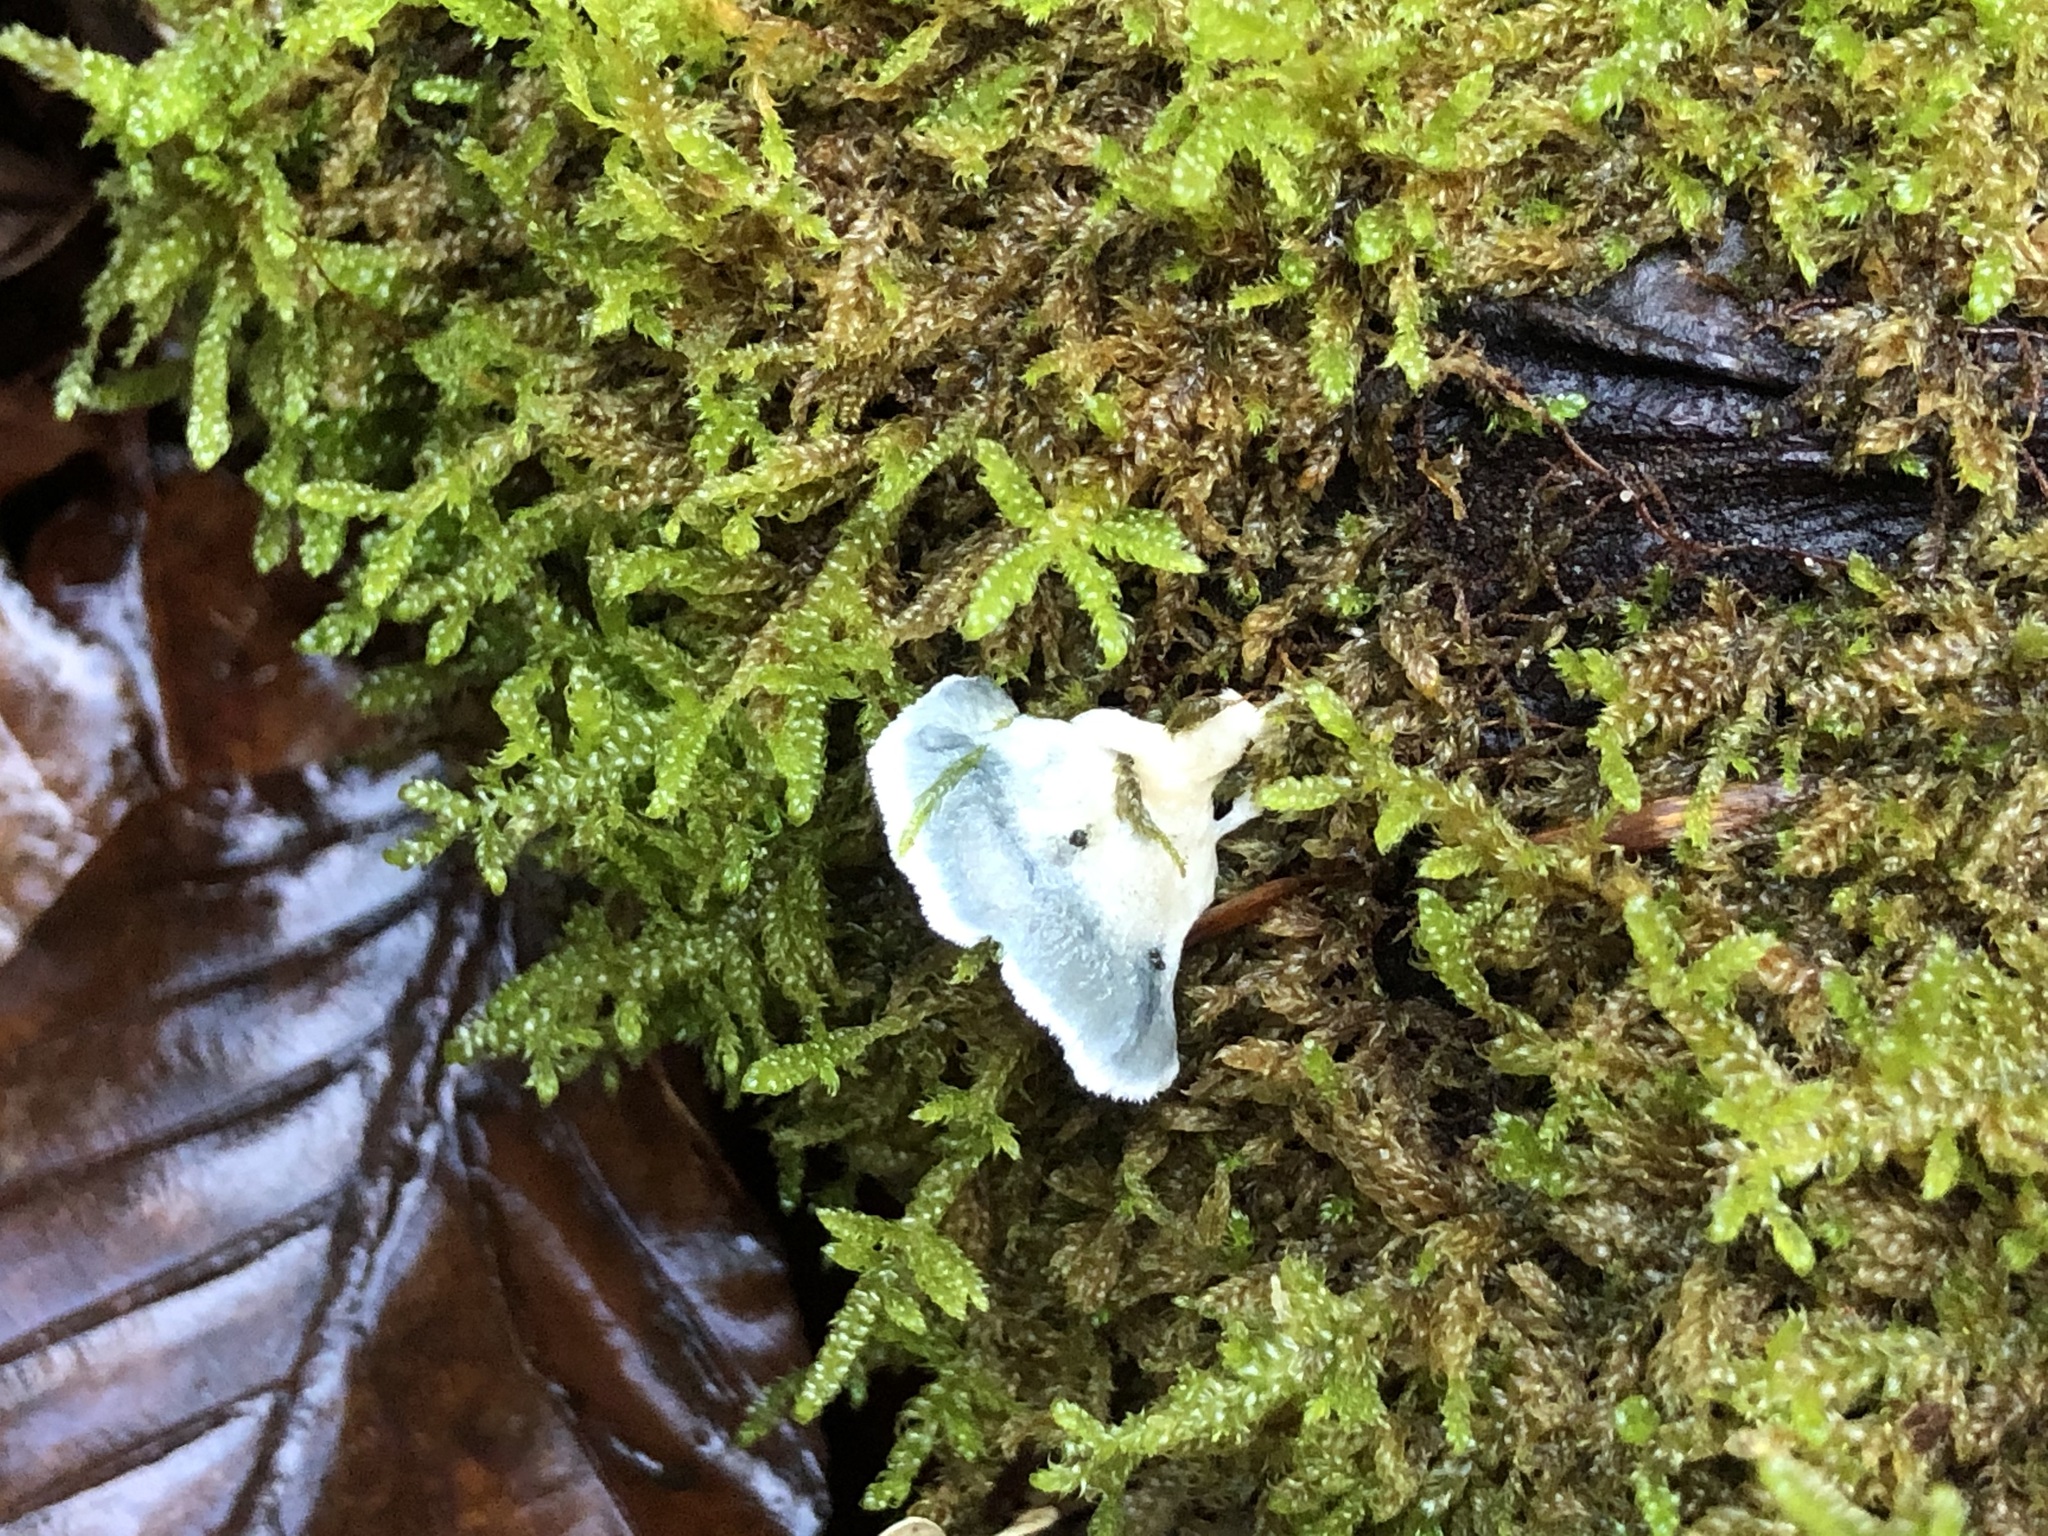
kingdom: Fungi
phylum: Basidiomycota
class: Agaricomycetes
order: Polyporales
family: Polyporaceae
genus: Cyanosporus
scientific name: Cyanosporus caesius
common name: Blue cheese polypore
